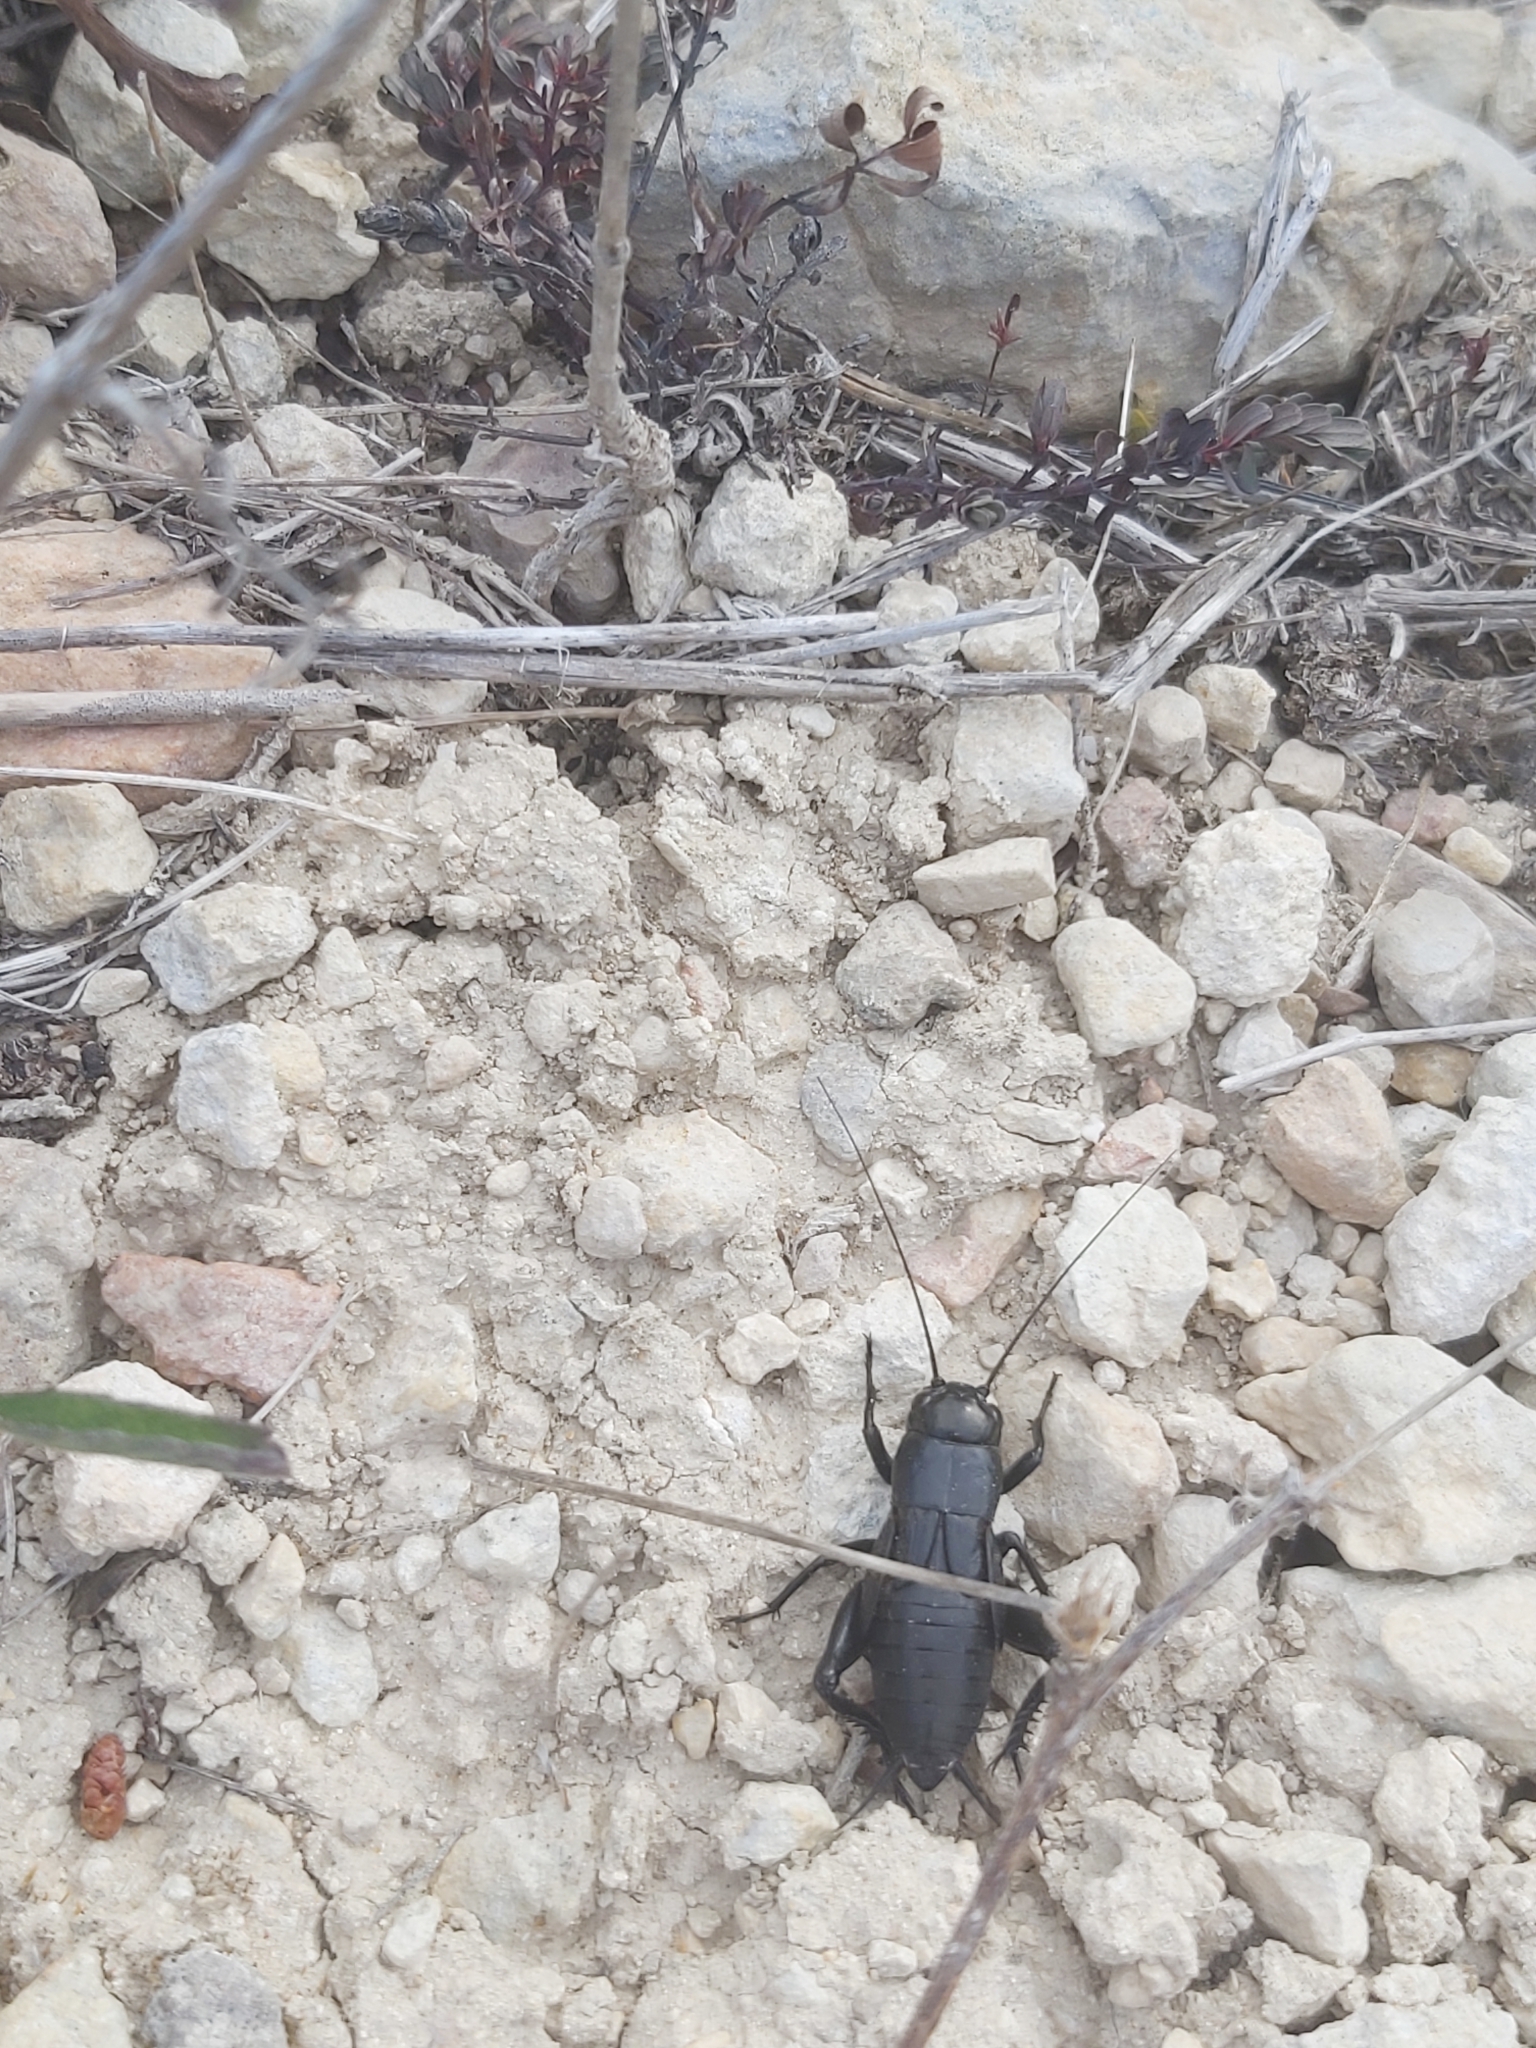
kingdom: Animalia
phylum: Arthropoda
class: Insecta
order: Orthoptera
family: Gryllidae
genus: Gryllus
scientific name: Gryllus bimaculatus
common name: Two-spotted cricket
